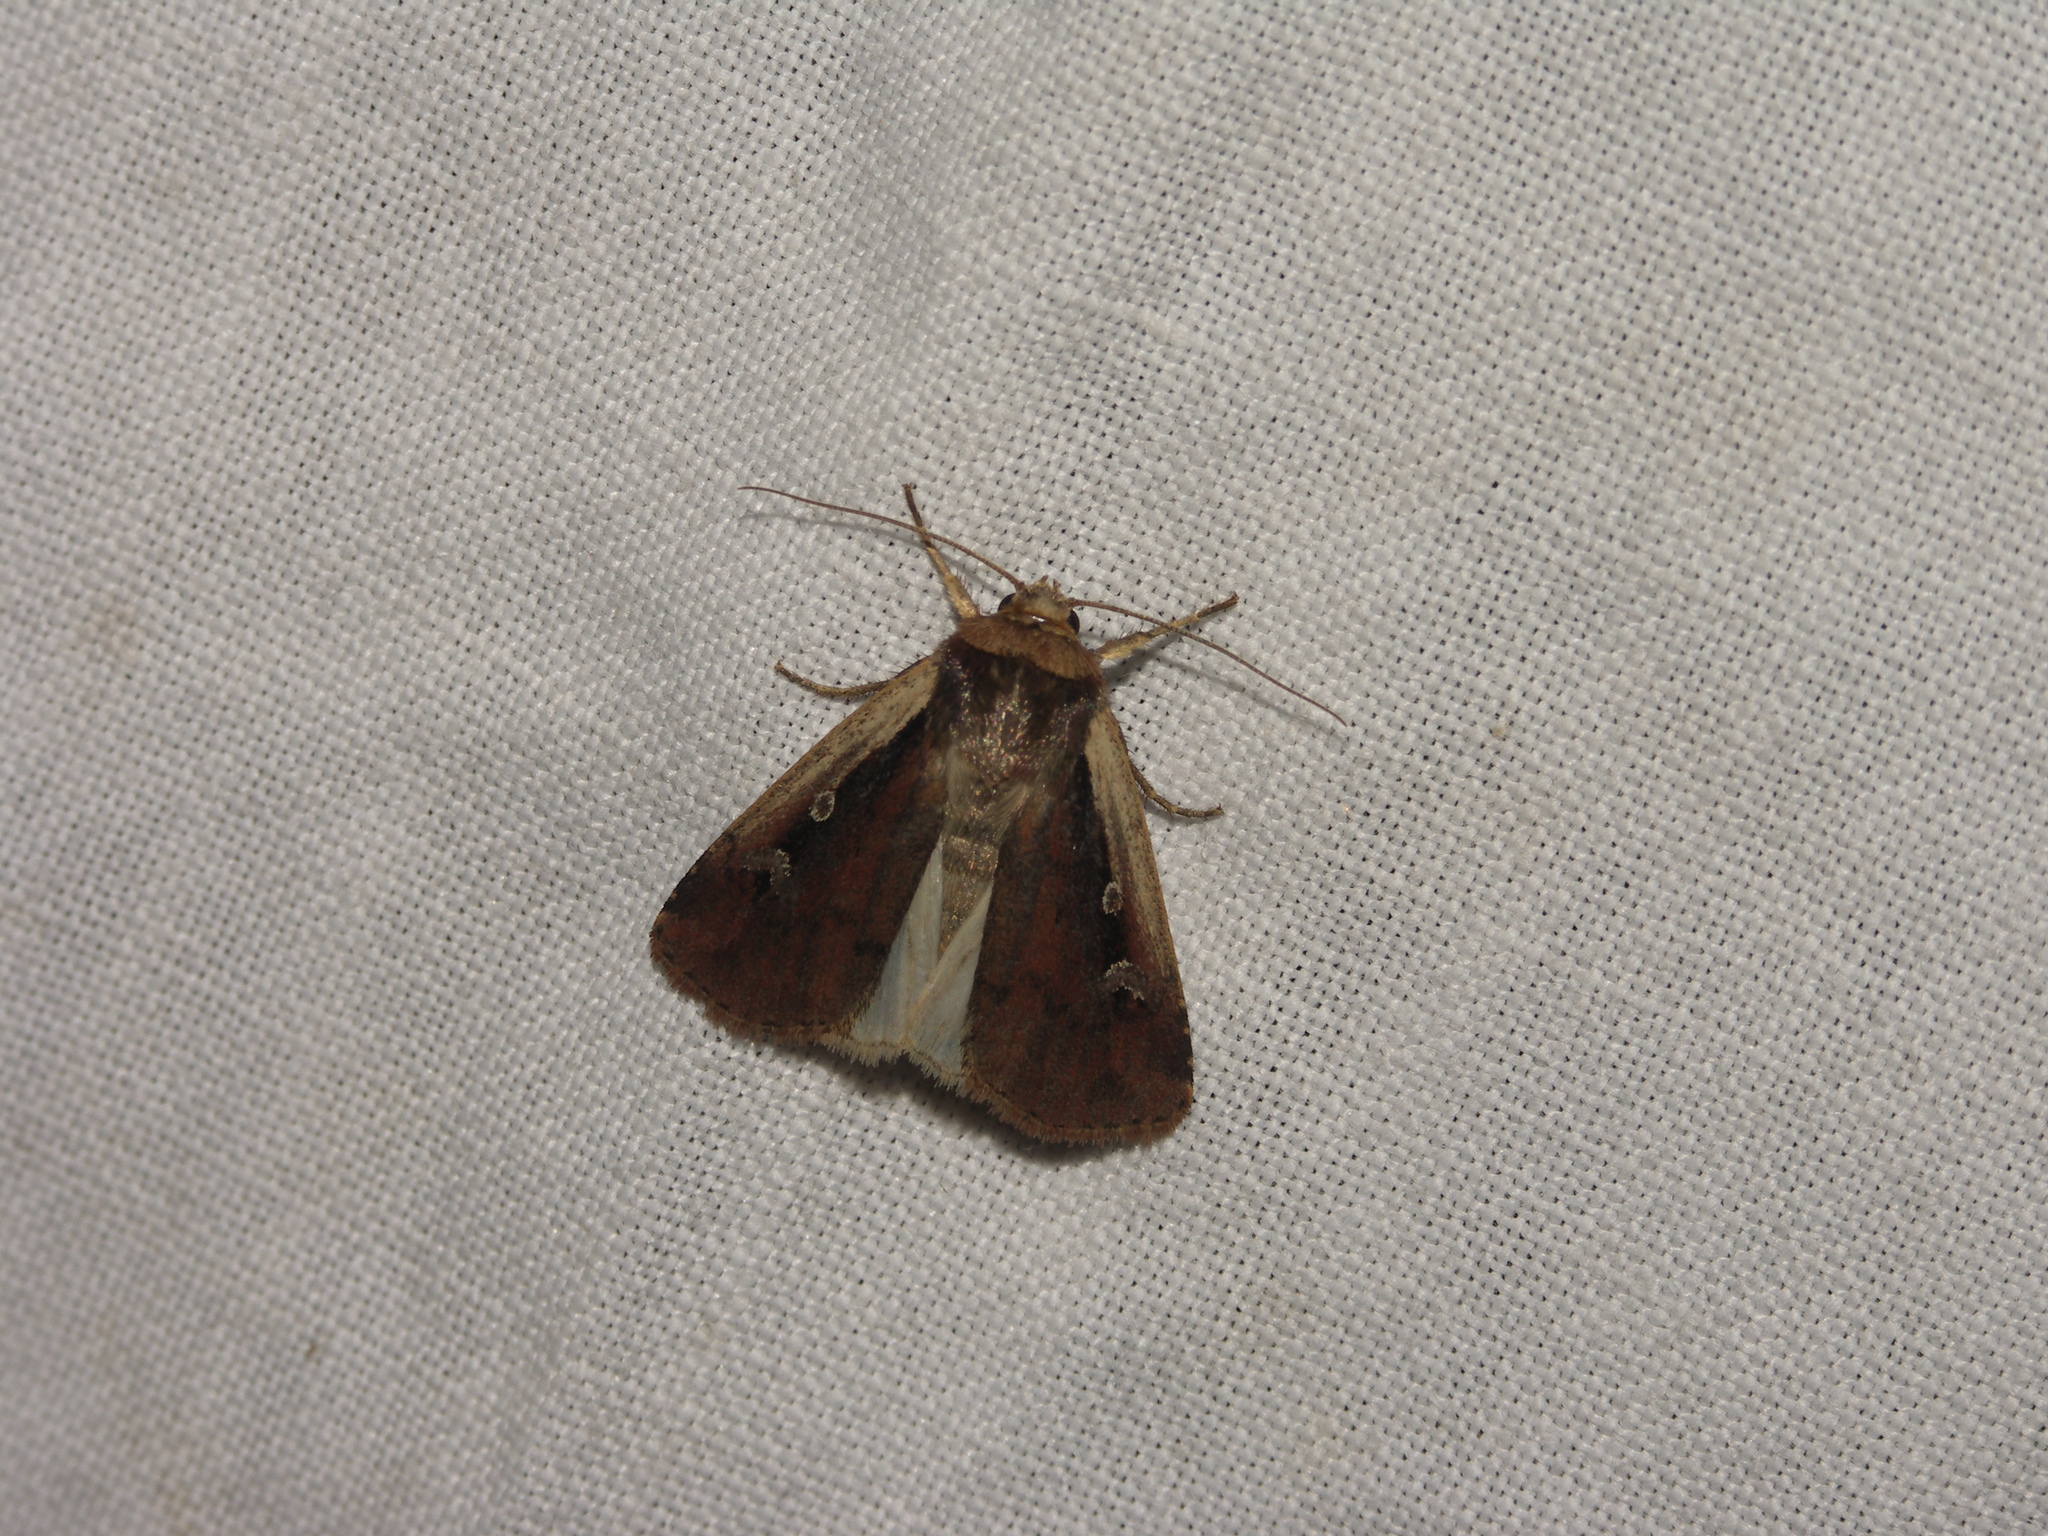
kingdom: Animalia
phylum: Arthropoda
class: Insecta
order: Lepidoptera
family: Noctuidae
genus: Ochropleura
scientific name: Ochropleura plecta
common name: Flame shoulder
